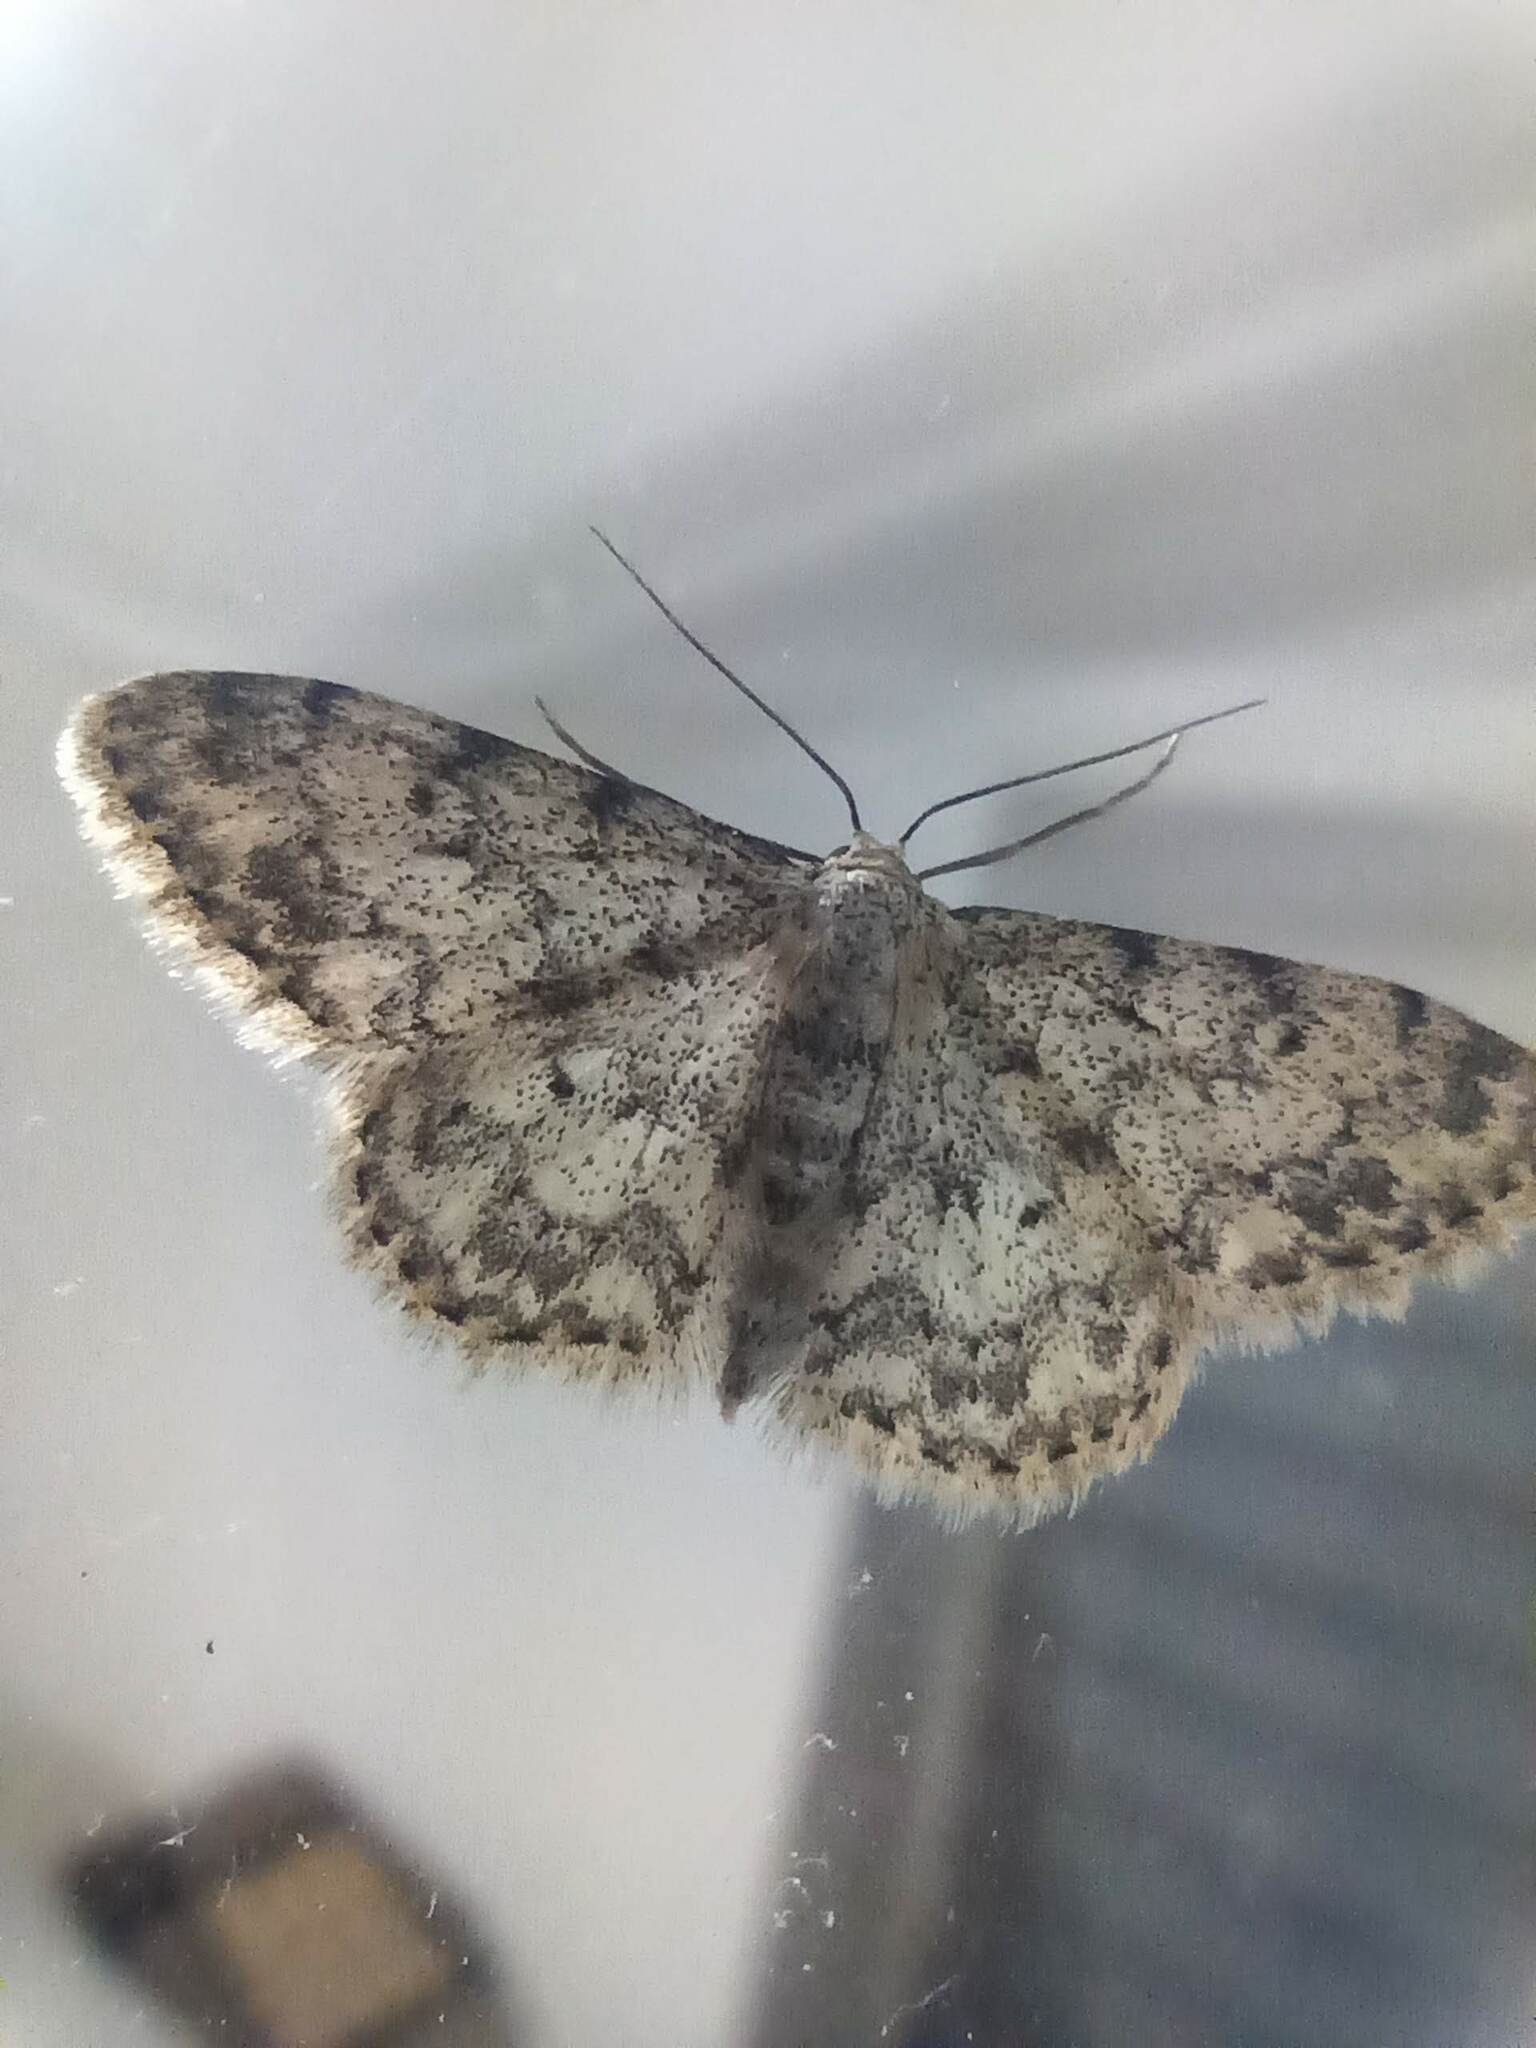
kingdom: Animalia
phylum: Arthropoda
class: Insecta
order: Lepidoptera
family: Geometridae
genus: Idaea
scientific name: Idaea contiguaria
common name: Weaver's wave
